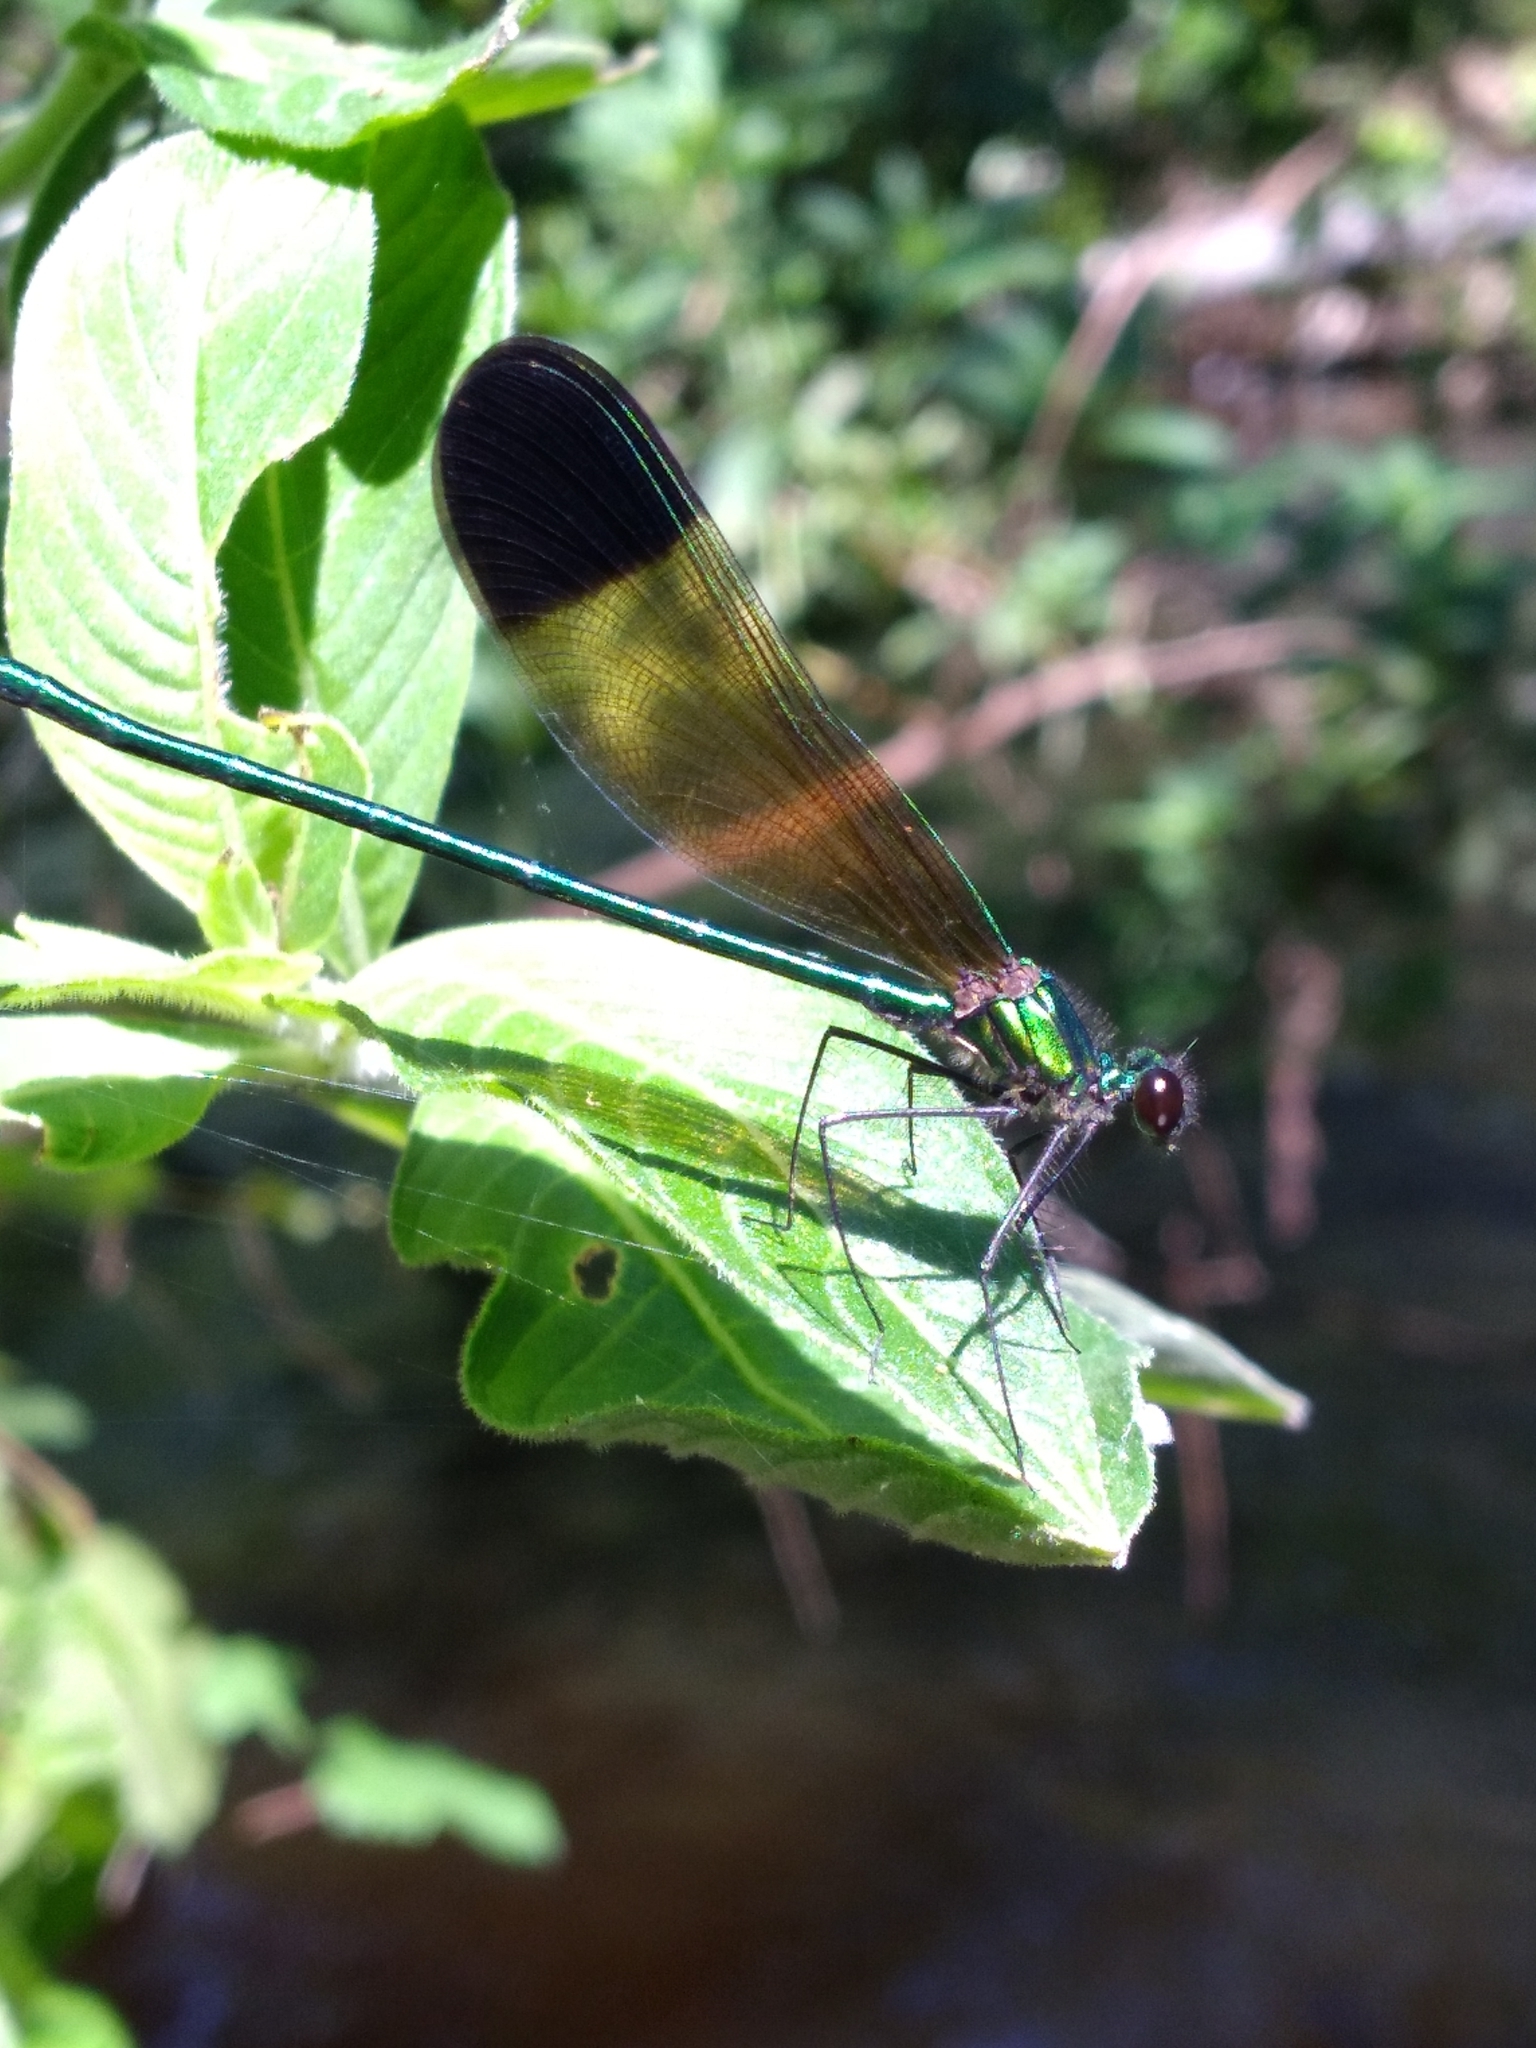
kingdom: Animalia
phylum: Arthropoda
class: Insecta
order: Odonata
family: Calopterygidae
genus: Calopteryx
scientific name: Calopteryx dimidiata
